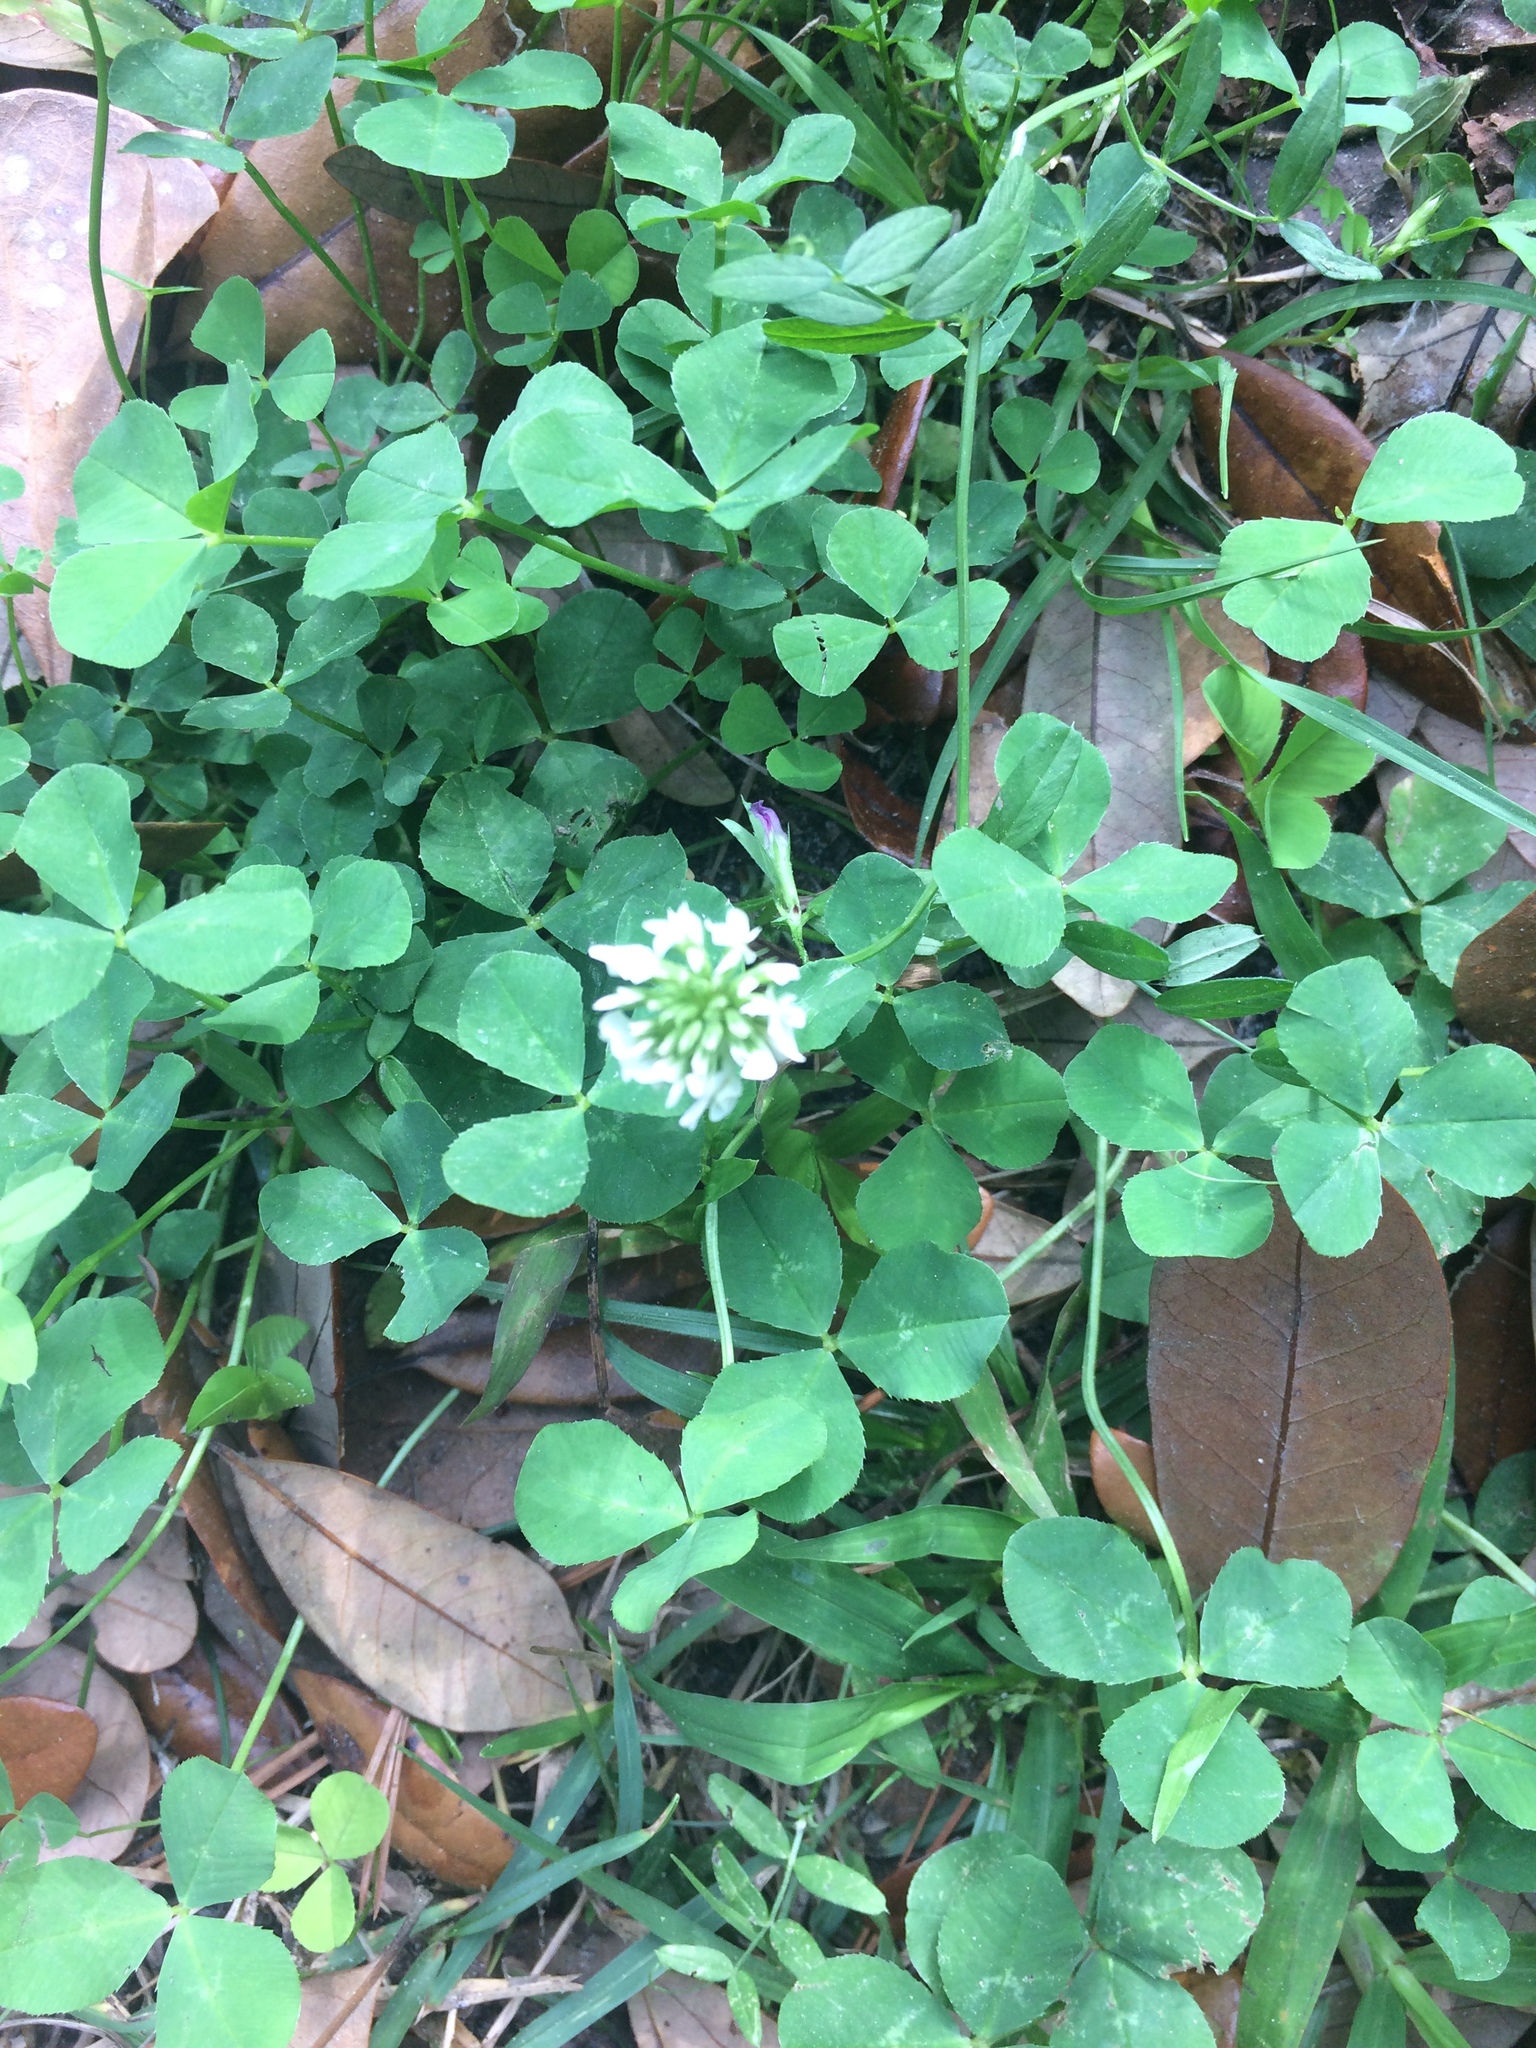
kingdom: Plantae
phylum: Tracheophyta
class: Magnoliopsida
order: Fabales
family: Fabaceae
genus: Trifolium
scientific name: Trifolium repens
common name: White clover
